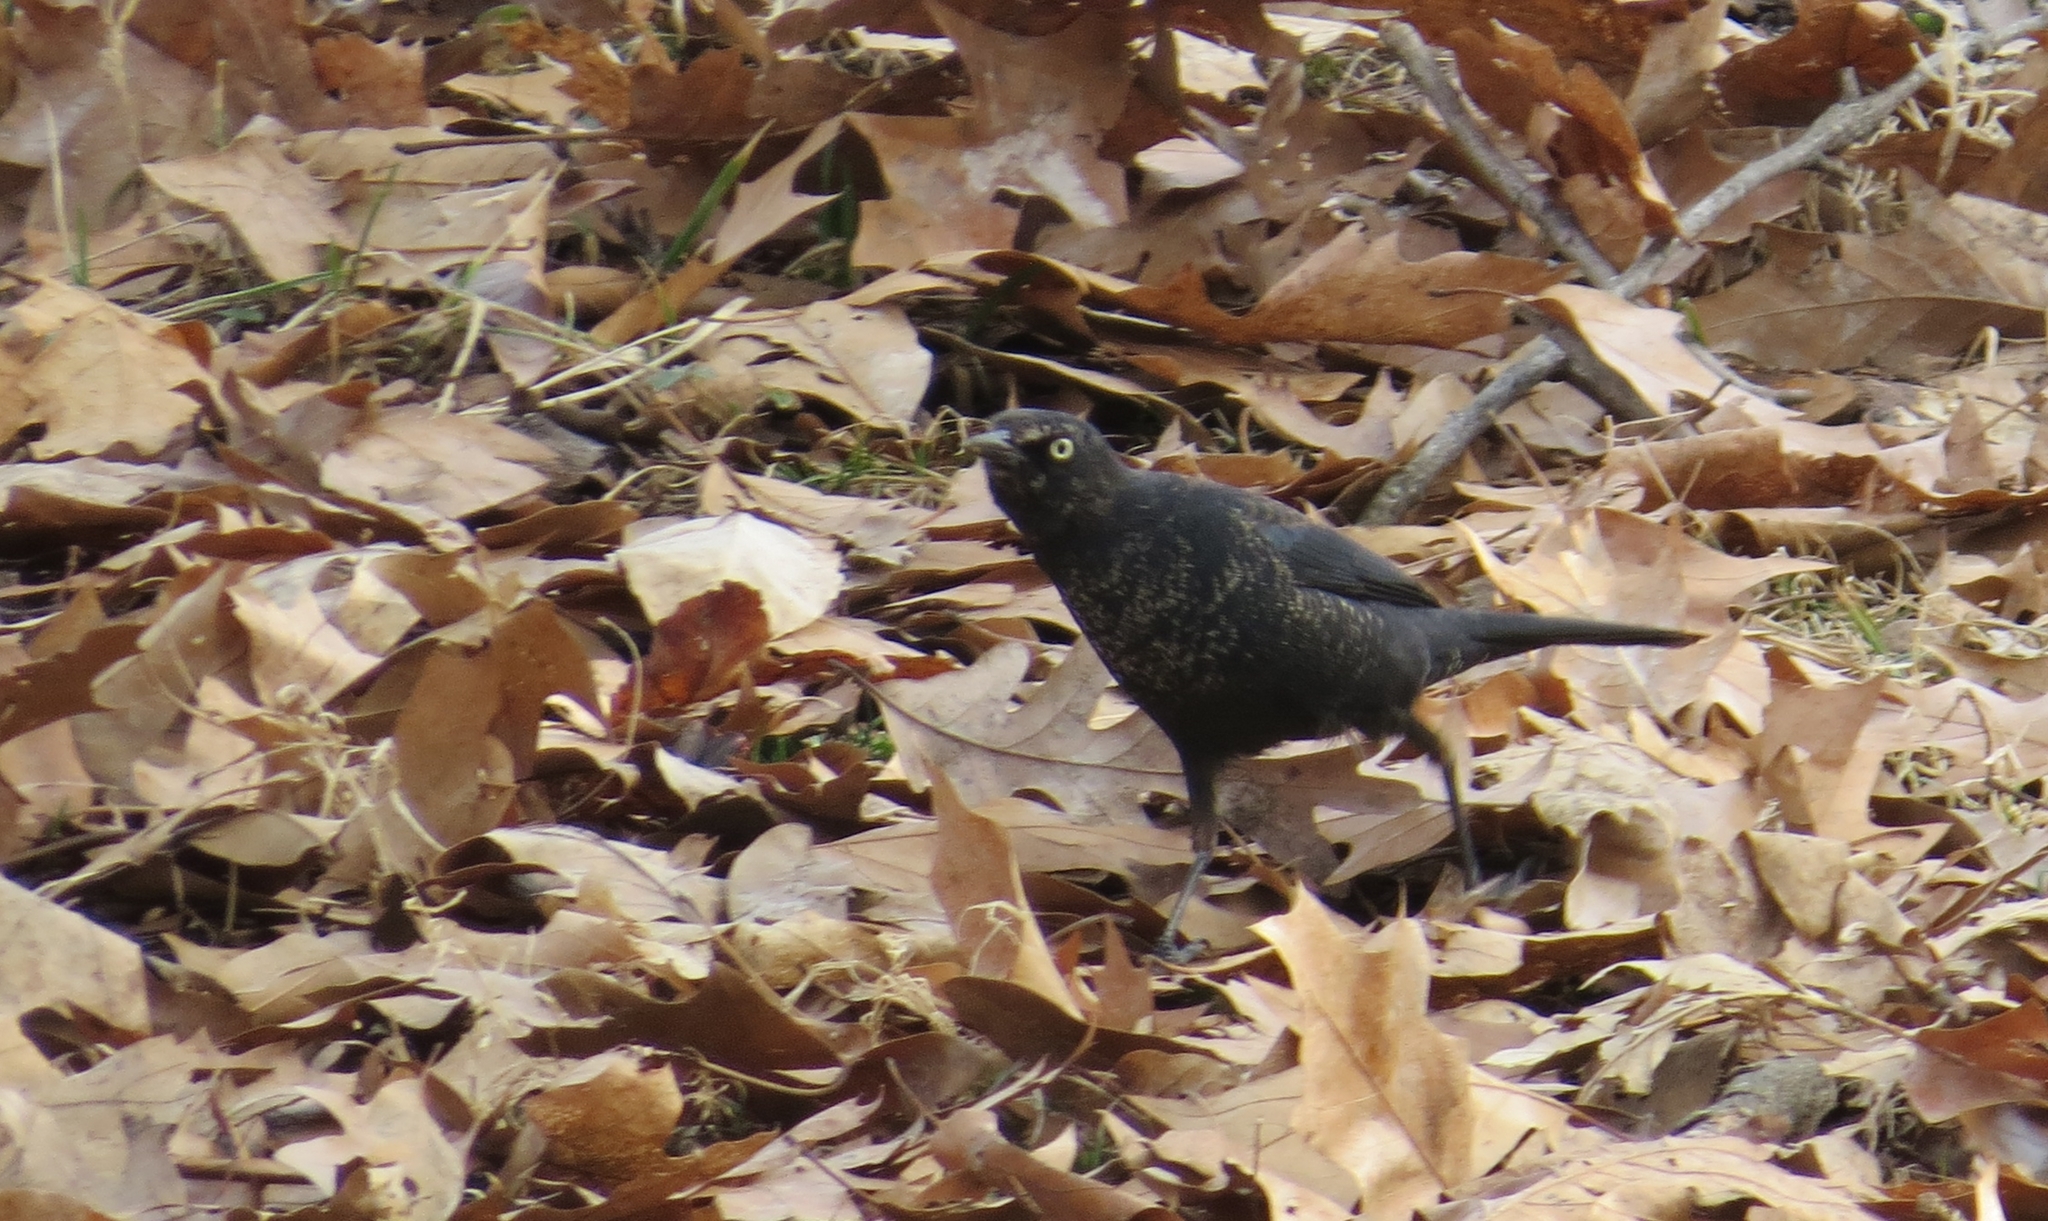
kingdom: Animalia
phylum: Chordata
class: Aves
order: Passeriformes
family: Icteridae
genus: Euphagus
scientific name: Euphagus carolinus
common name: Rusty blackbird
